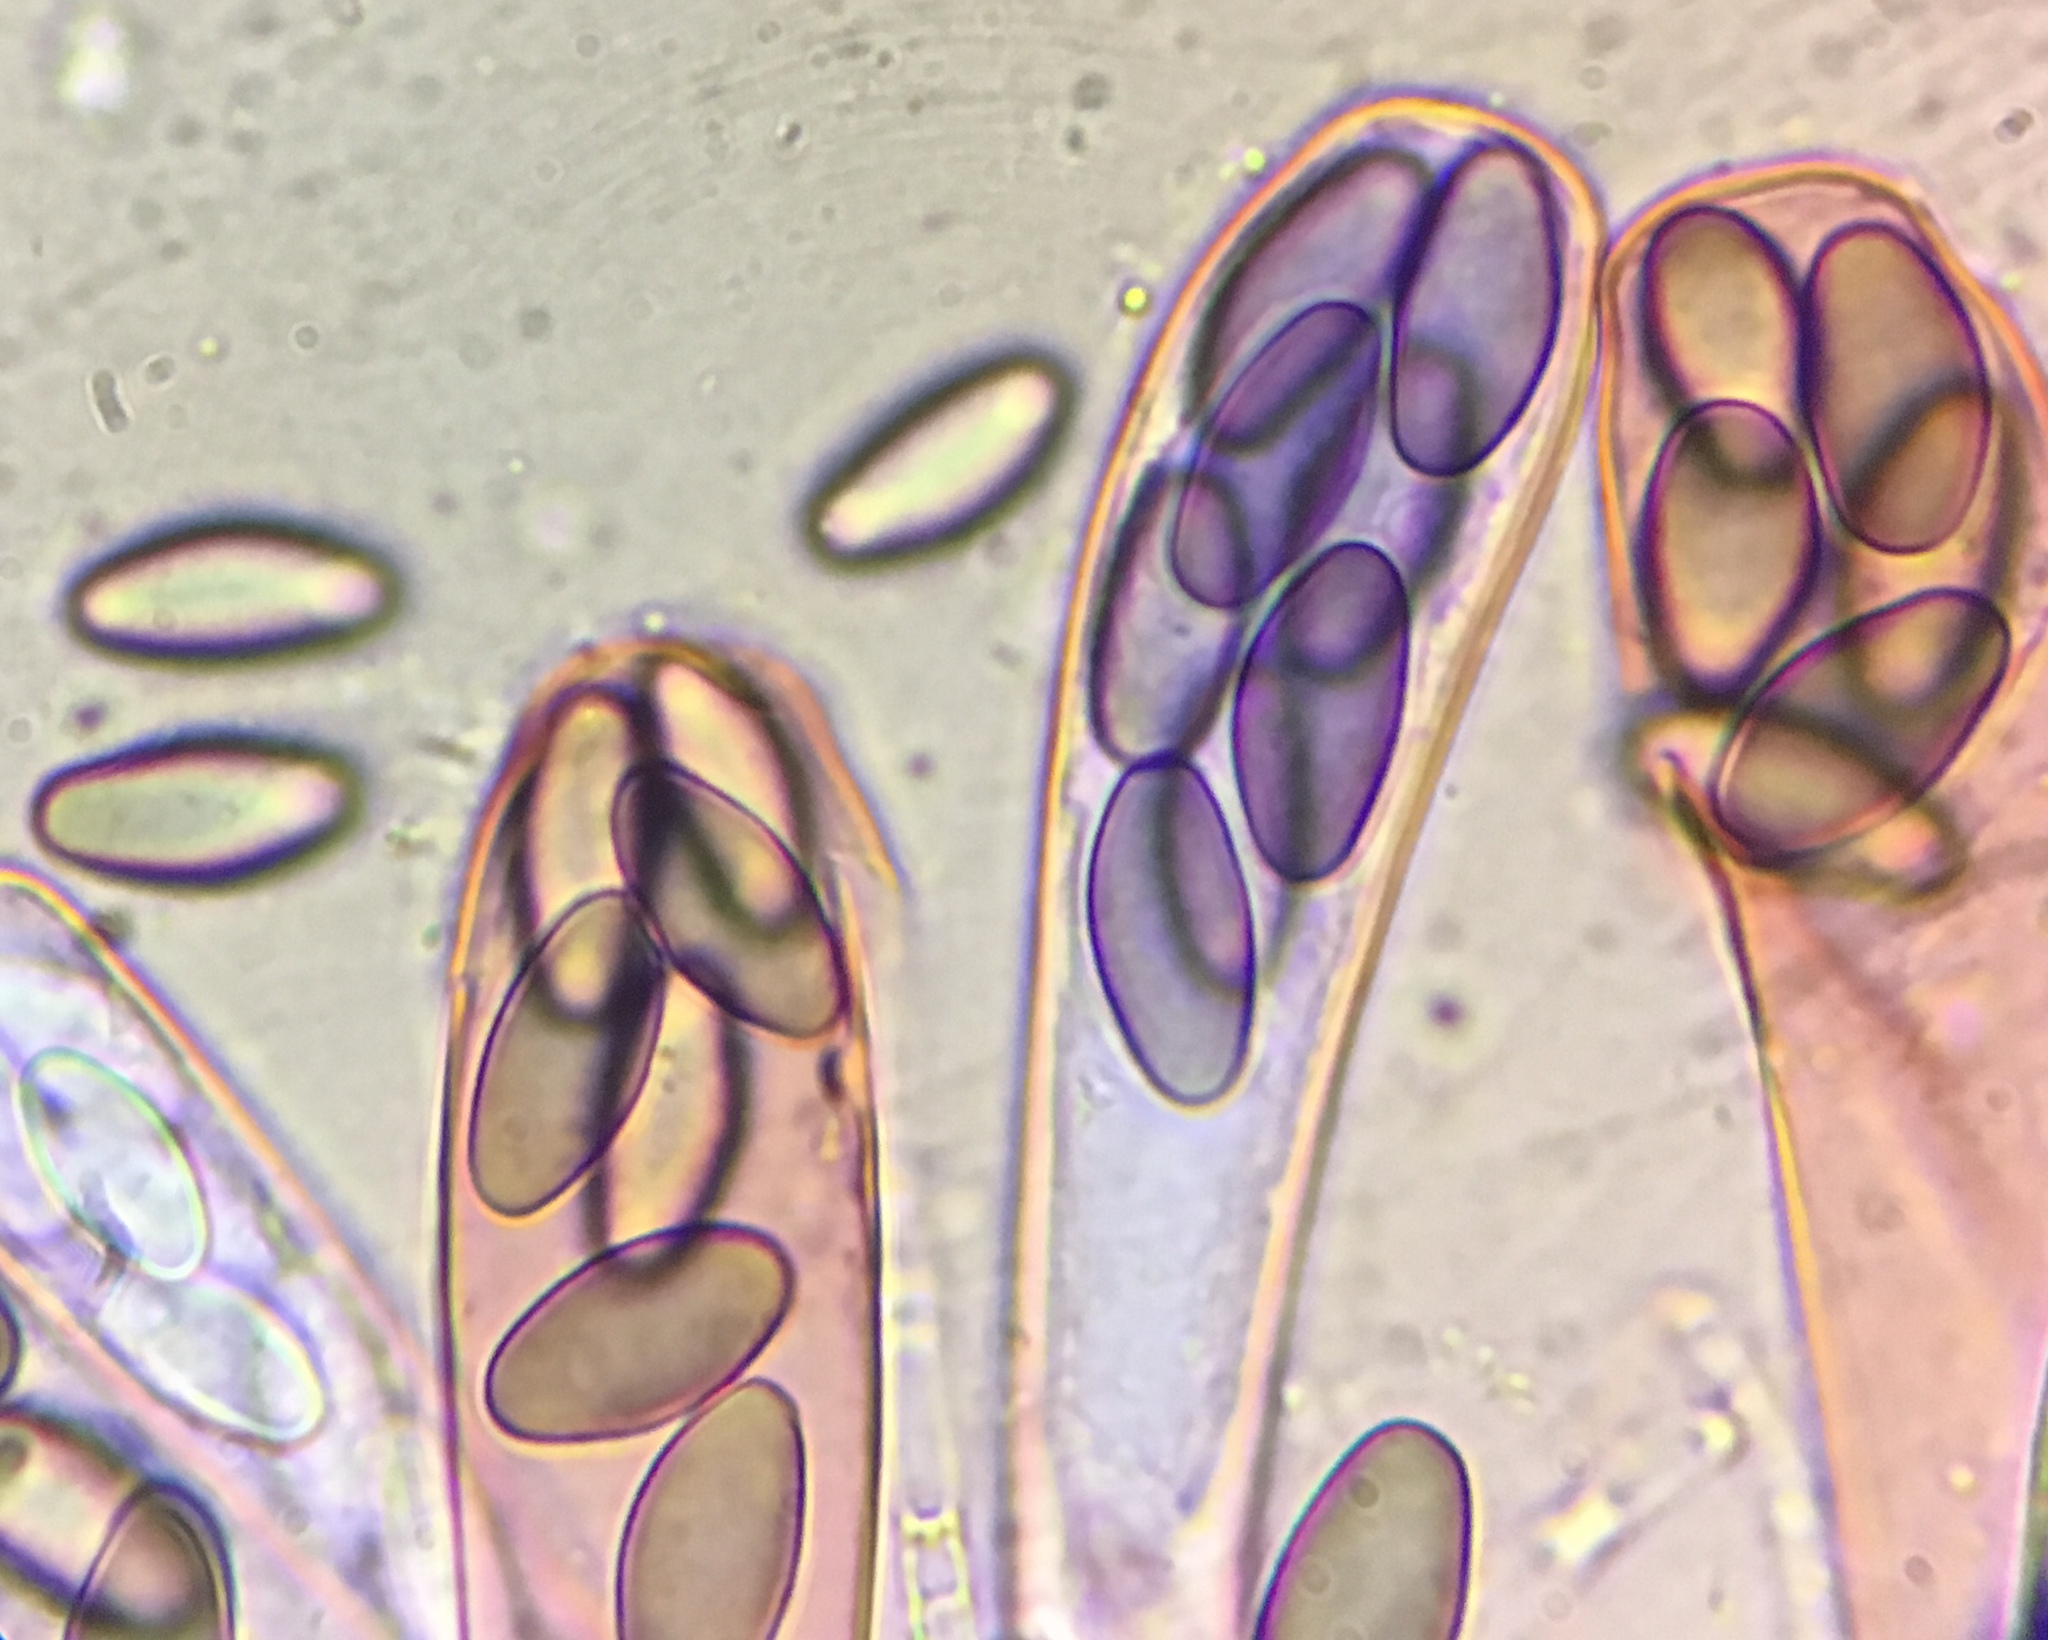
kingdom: Fungi
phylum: Ascomycota
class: Pezizomycetes
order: Pezizales
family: Ascobolaceae
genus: Saccobolus
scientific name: Saccobolus depauperatus
